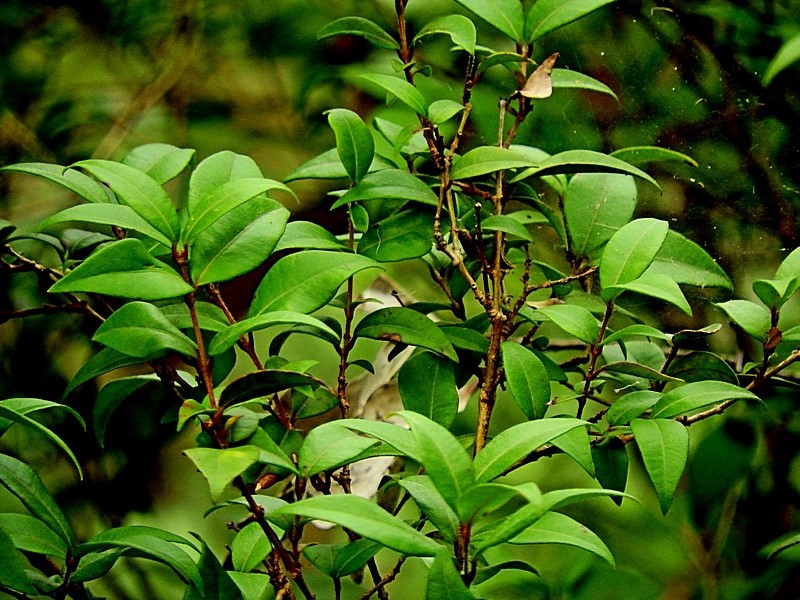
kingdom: Plantae
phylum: Tracheophyta
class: Magnoliopsida
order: Myrtales
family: Myrtaceae
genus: Backhousia
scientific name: Backhousia myrtifolia
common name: Carrol
